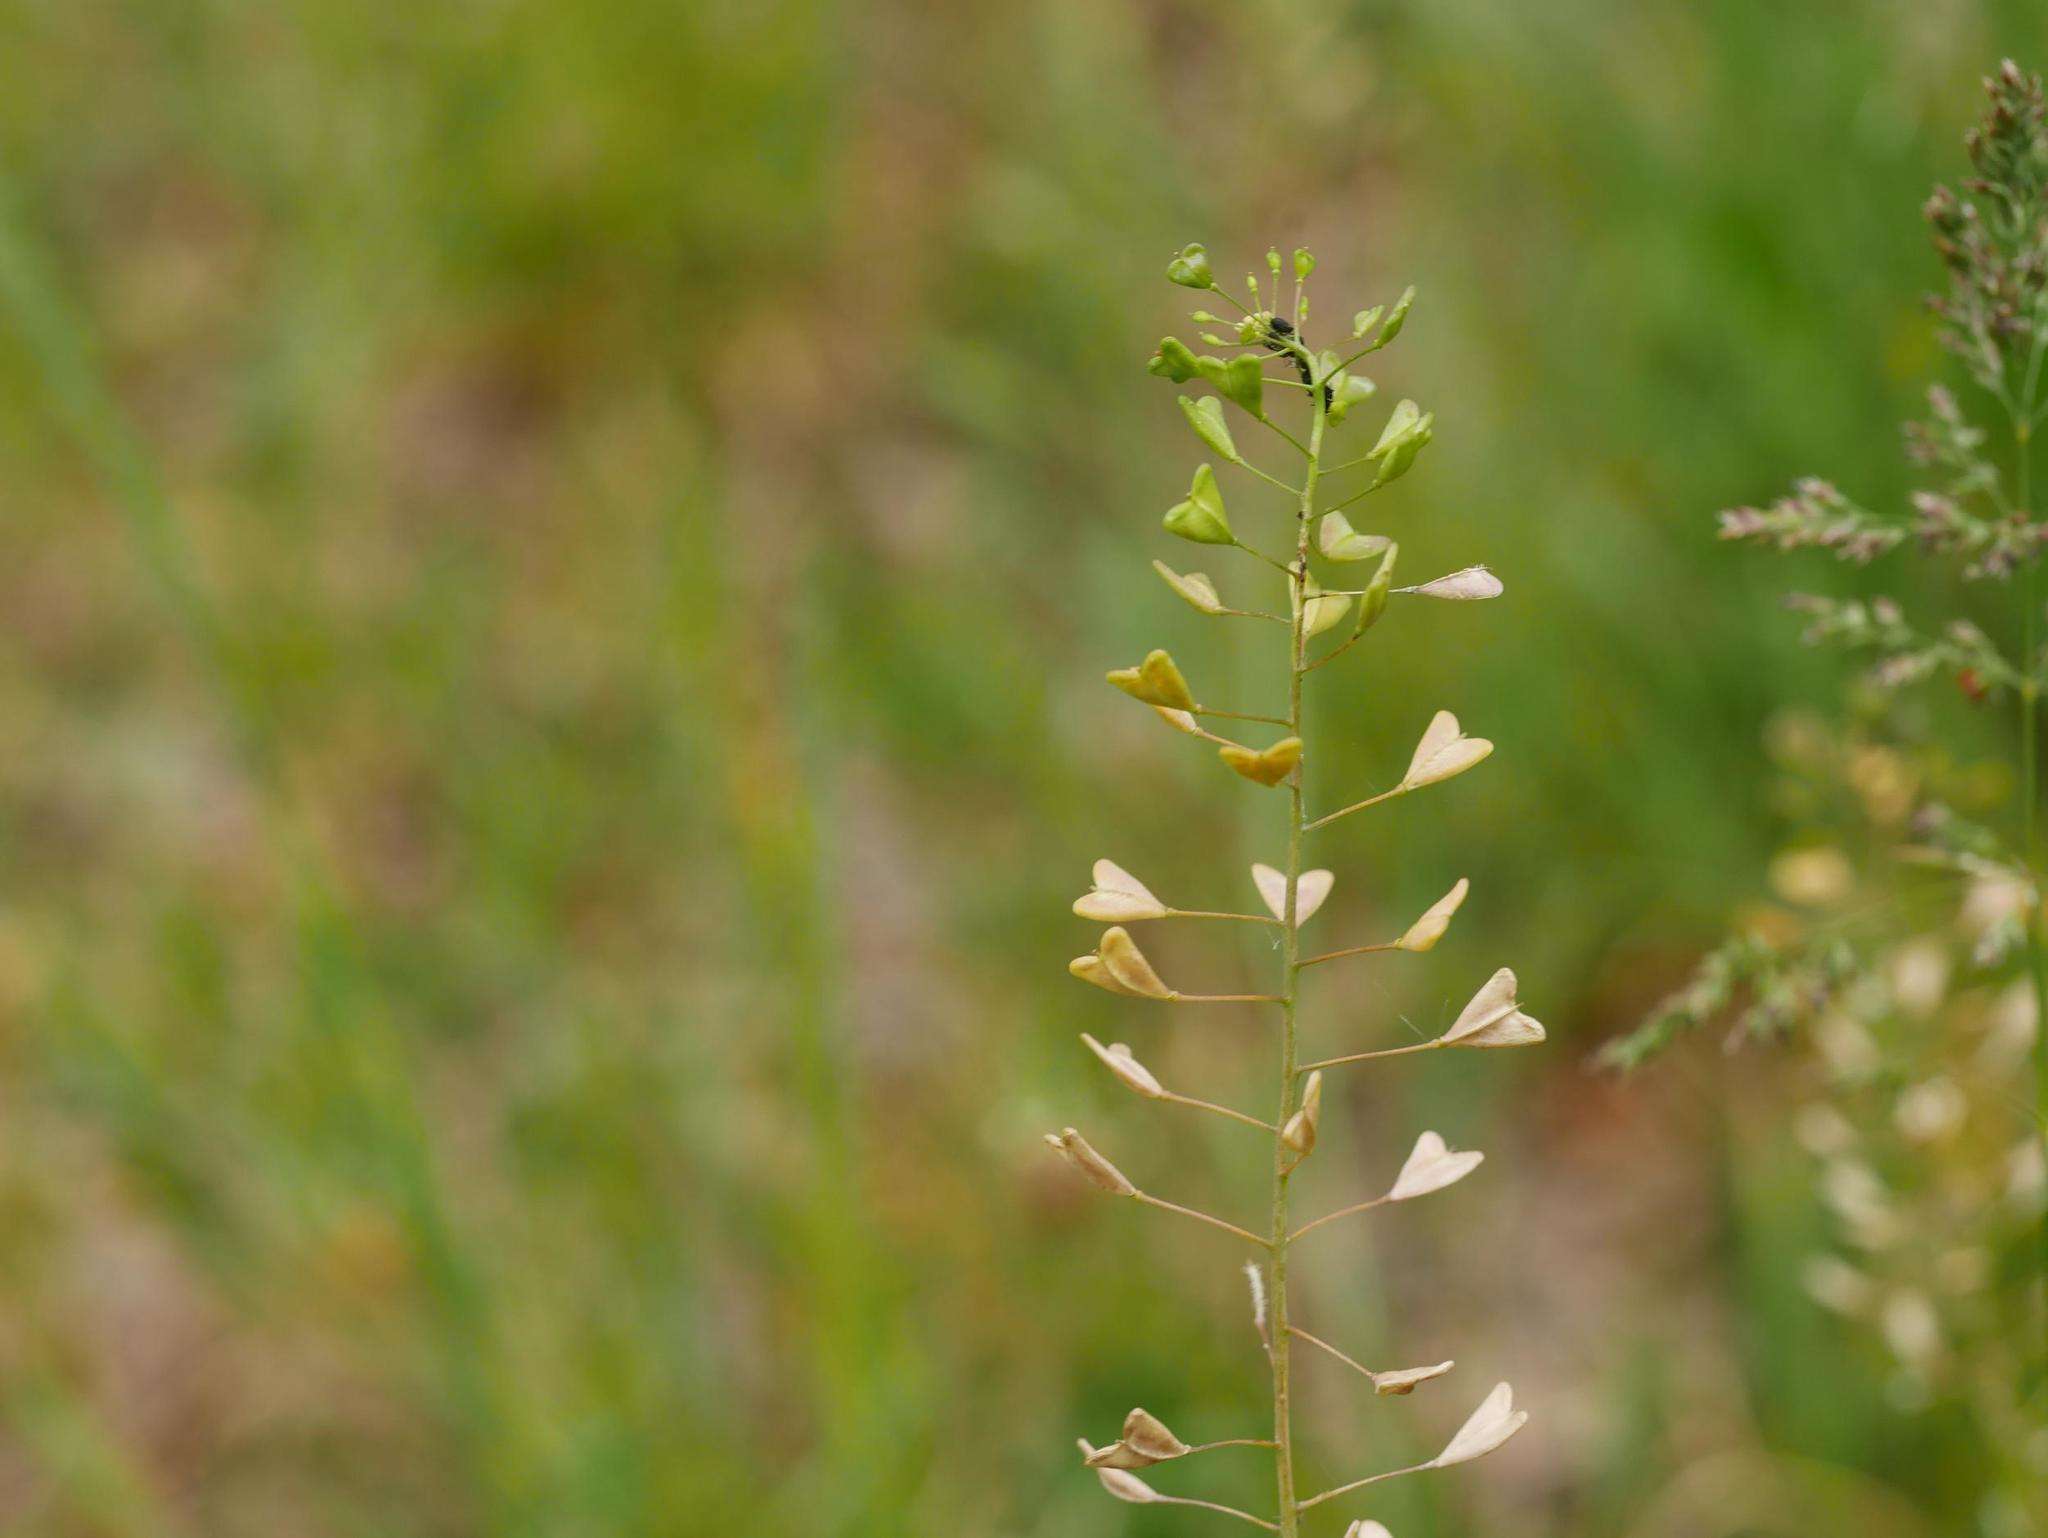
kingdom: Plantae
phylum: Tracheophyta
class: Magnoliopsida
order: Brassicales
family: Brassicaceae
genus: Capsella
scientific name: Capsella bursa-pastoris
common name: Shepherd's purse
